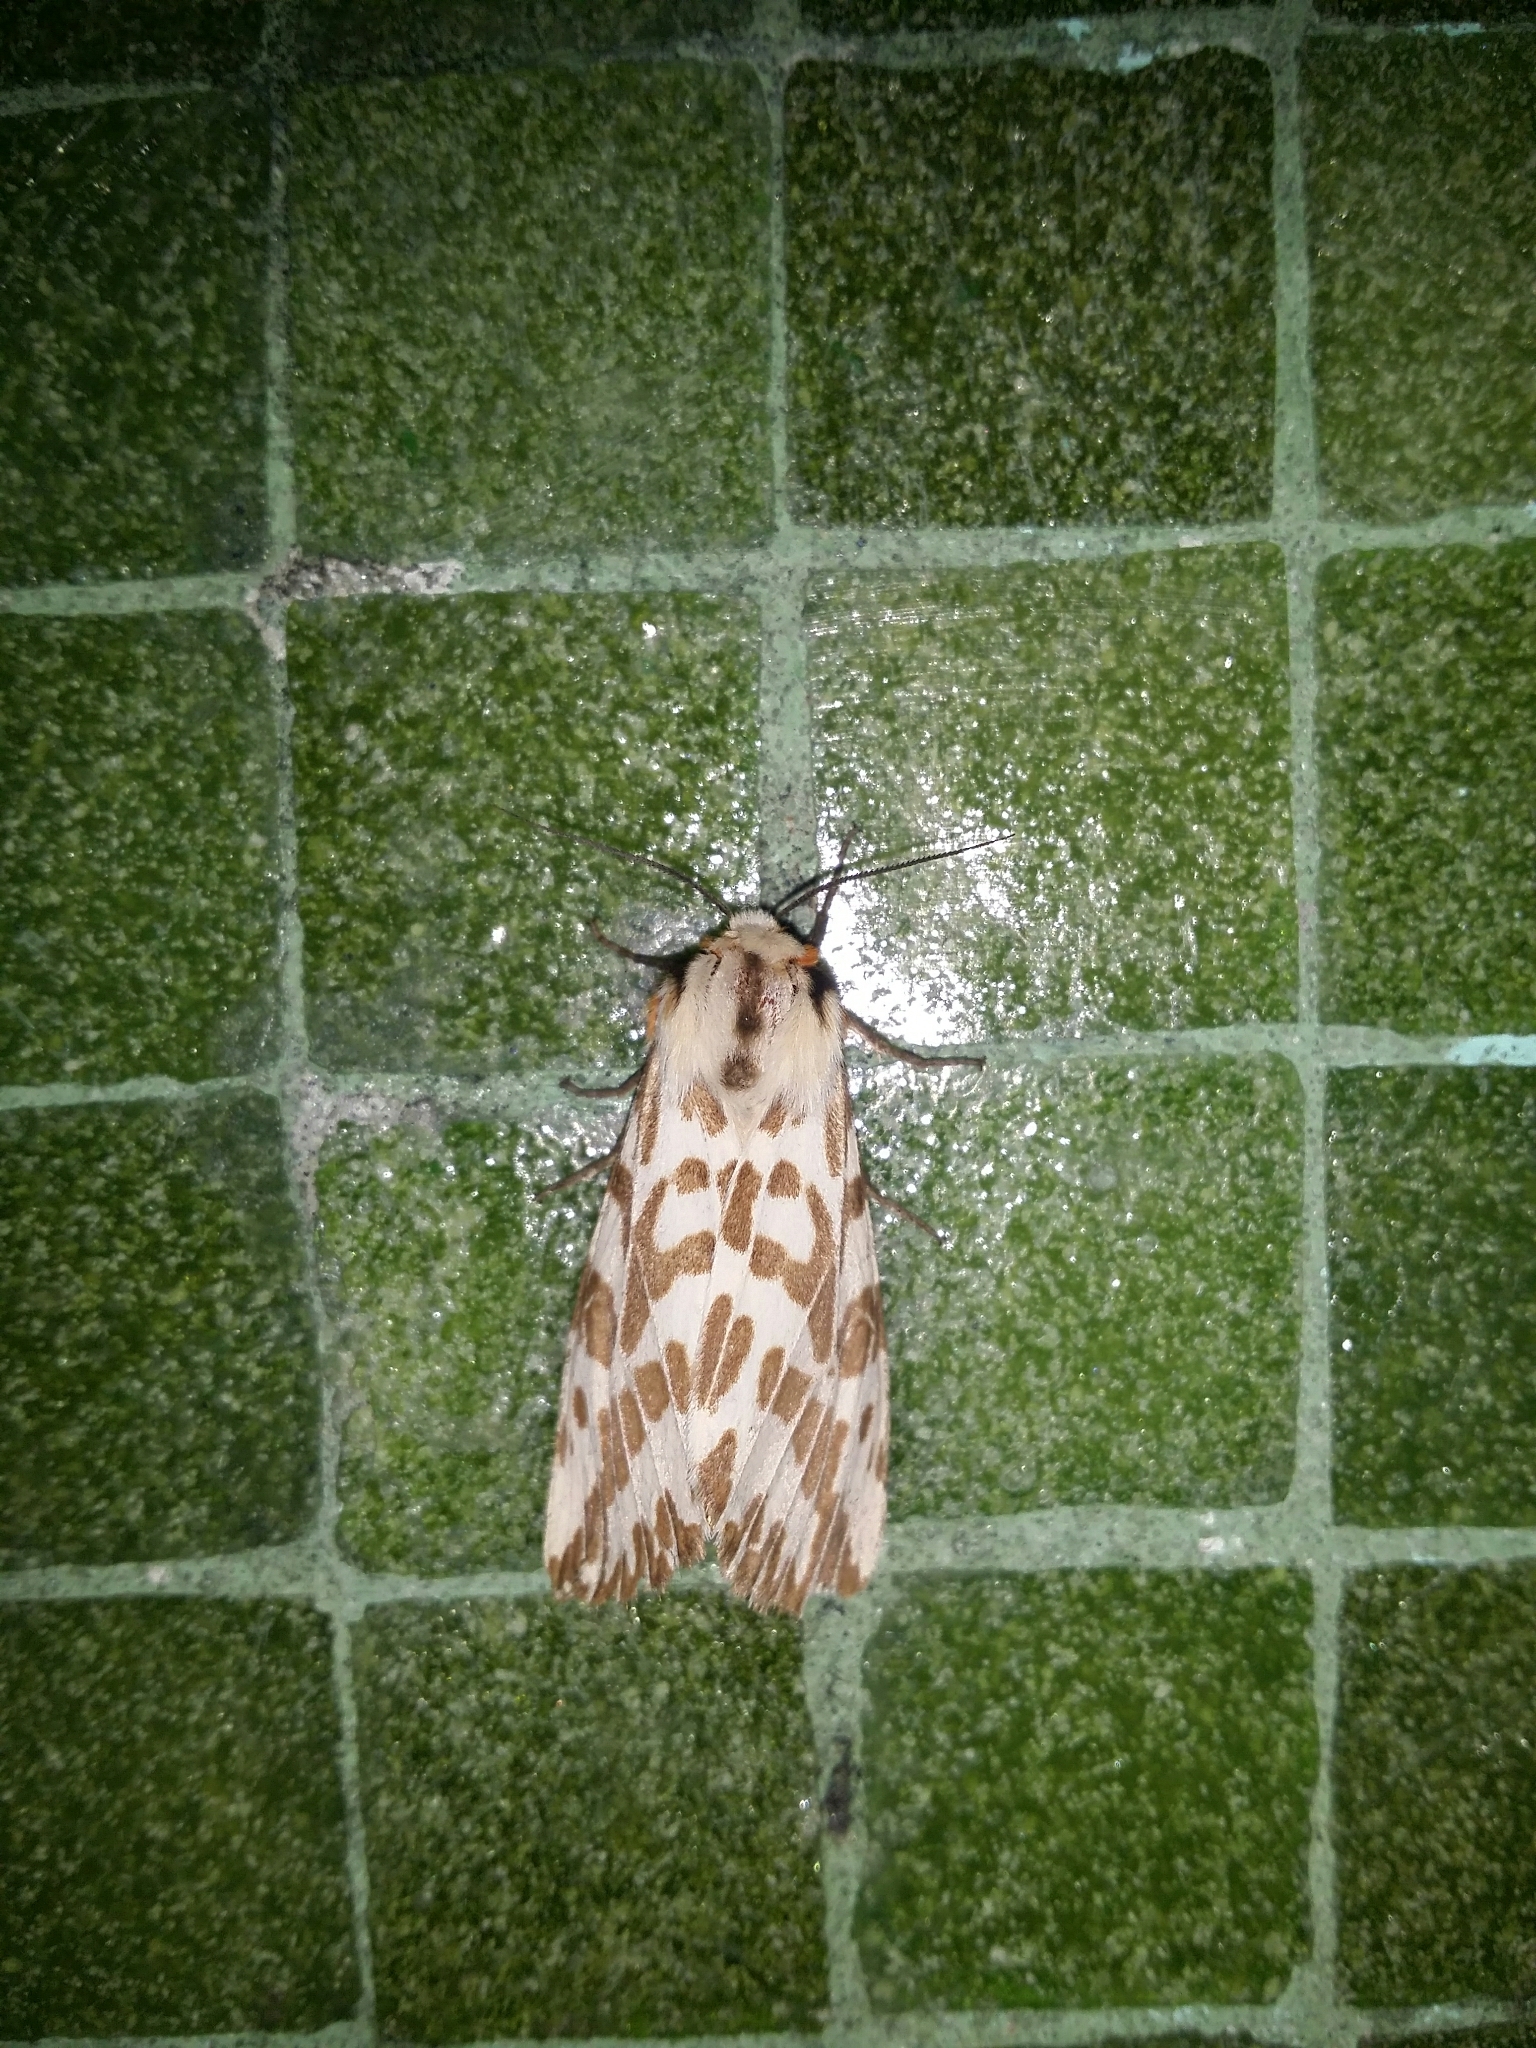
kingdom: Animalia
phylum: Arthropoda
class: Insecta
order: Lepidoptera
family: Erebidae
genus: Ardices
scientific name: Ardices glatignyi
